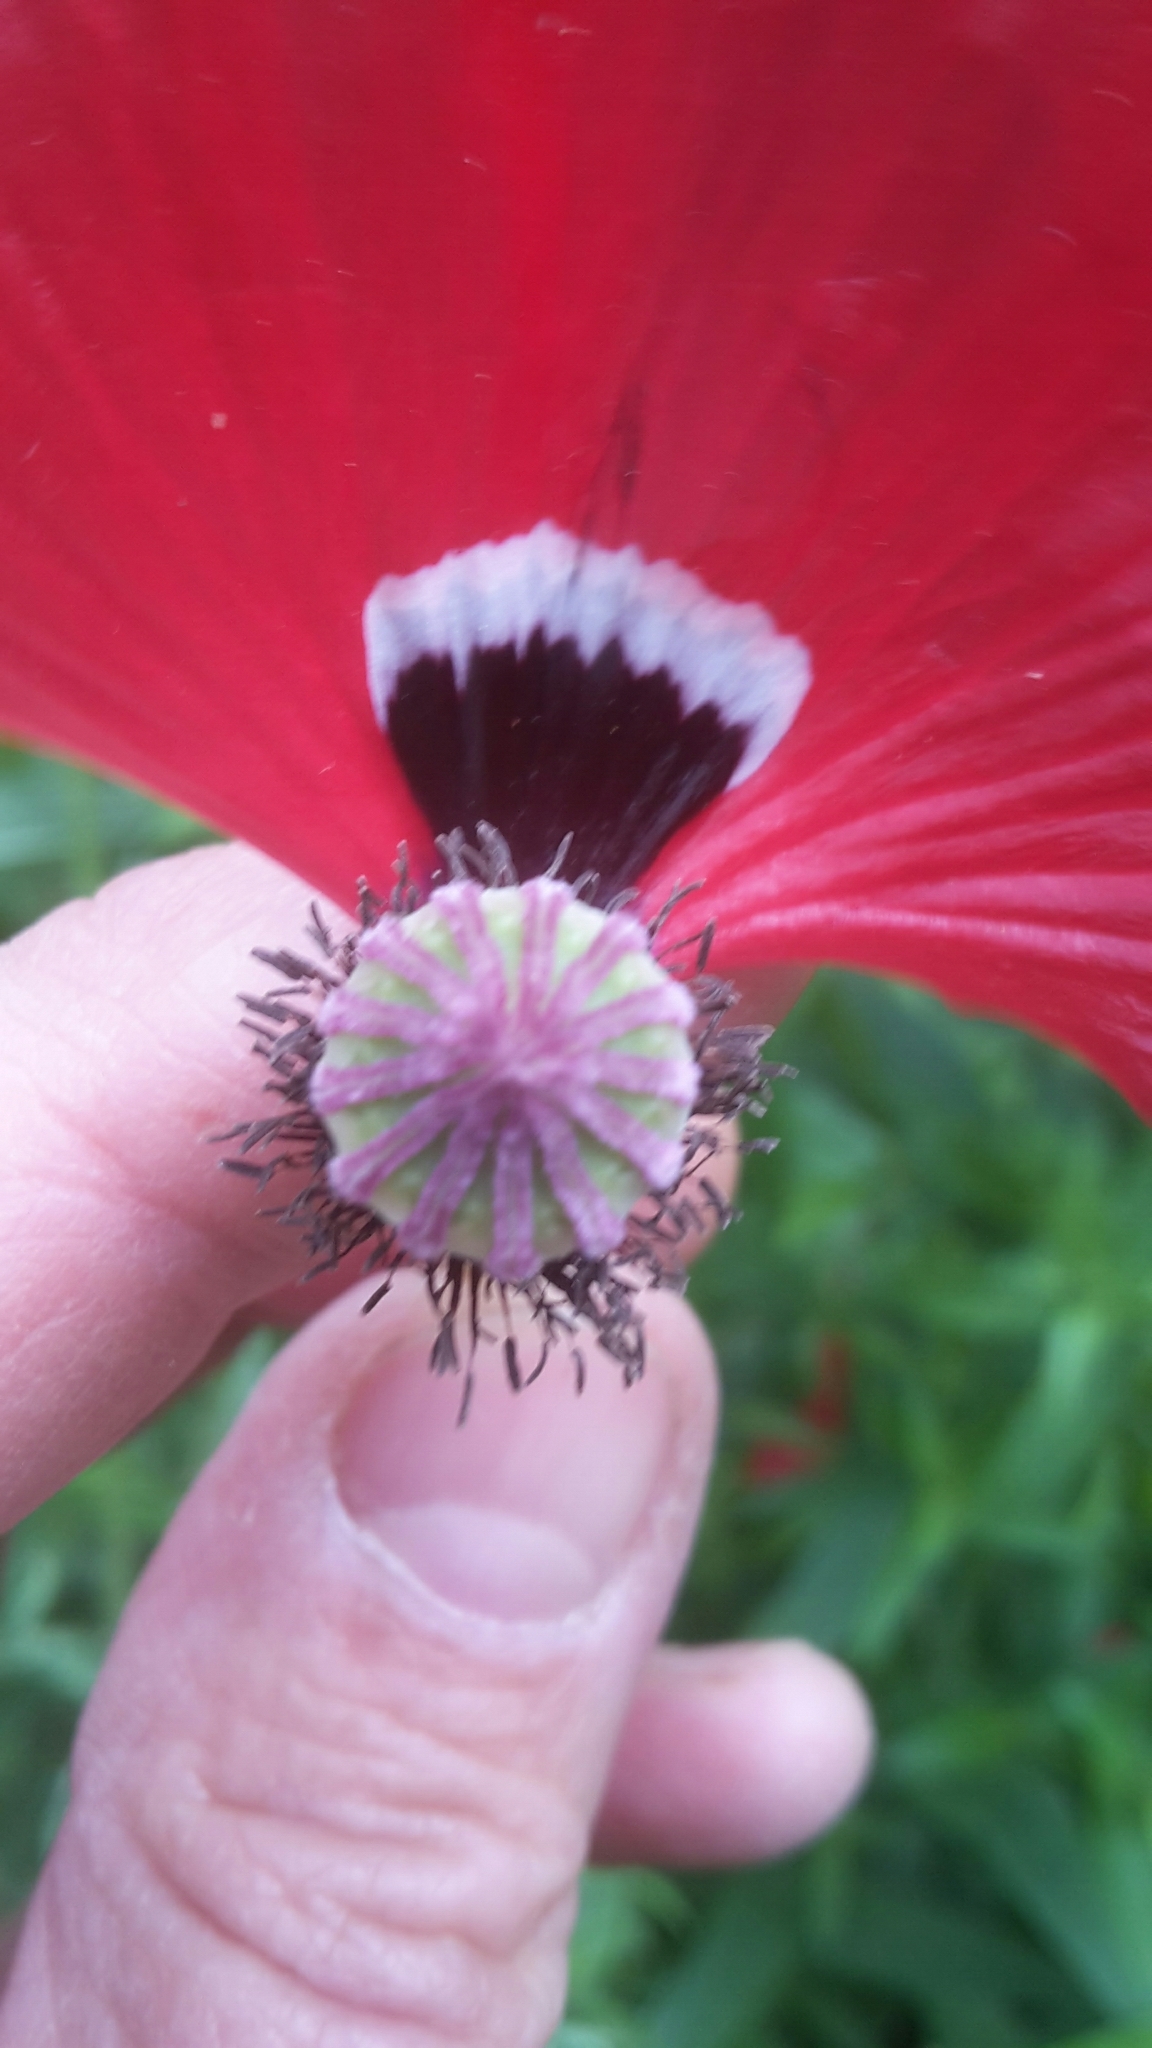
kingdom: Plantae
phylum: Tracheophyta
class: Magnoliopsida
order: Ranunculales
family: Papaveraceae
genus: Papaver
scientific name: Papaver rhoeas
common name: Corn poppy
